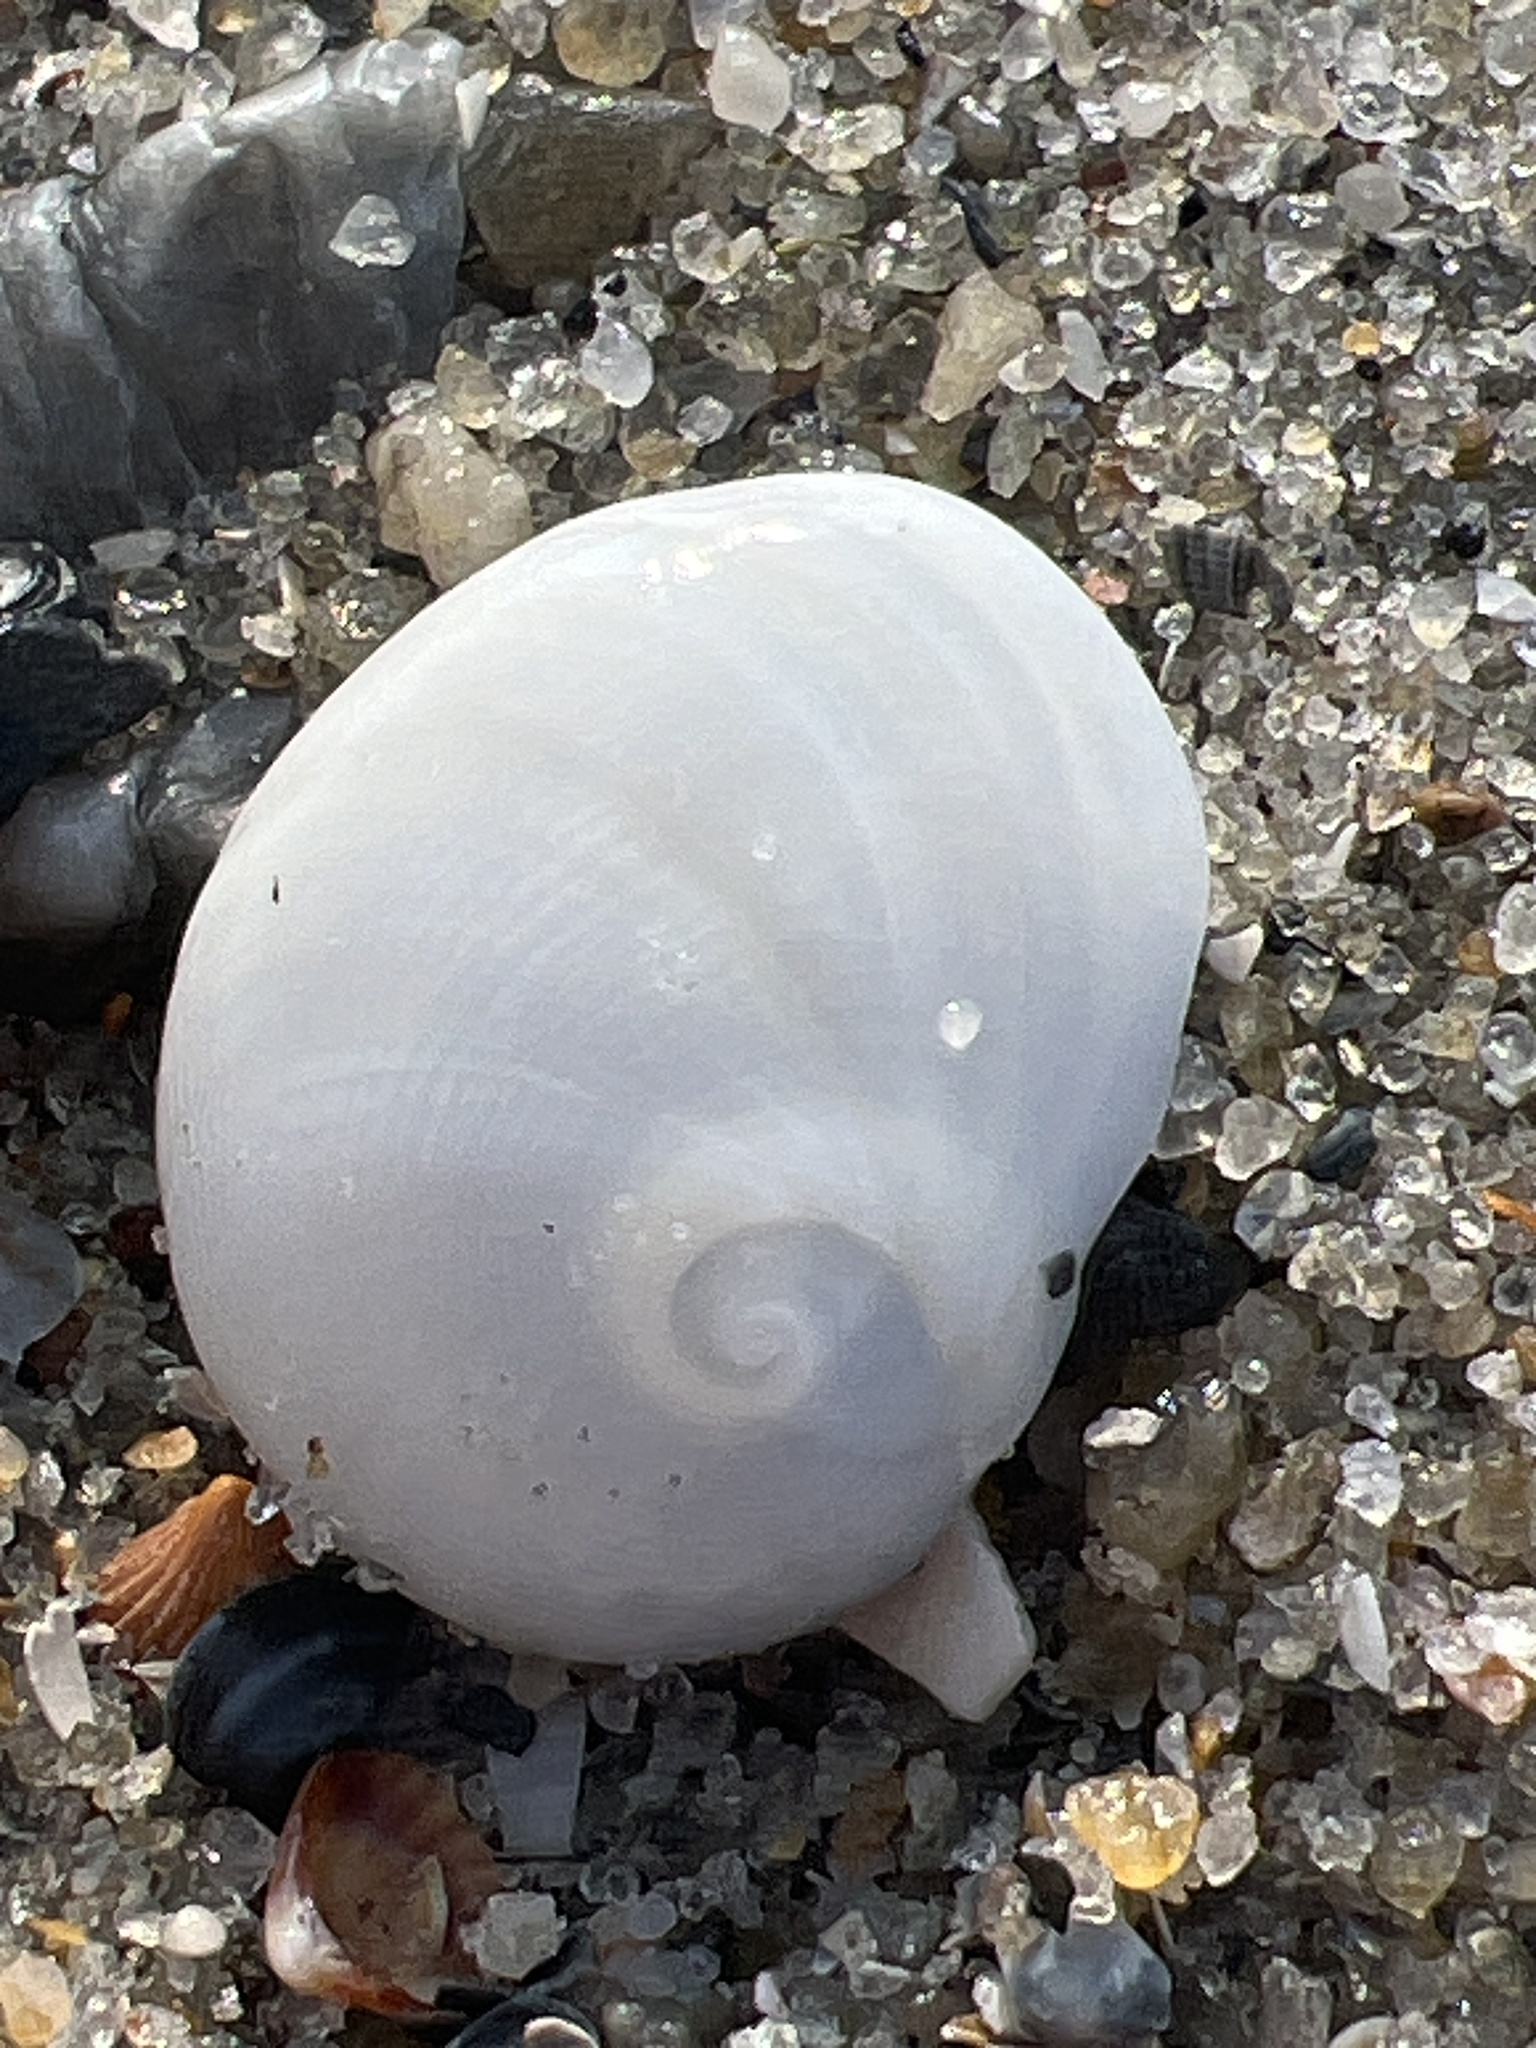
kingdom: Animalia
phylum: Mollusca
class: Gastropoda
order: Littorinimorpha
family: Naticidae
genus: Sinum
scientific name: Sinum perspectivum
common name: White baby ear
